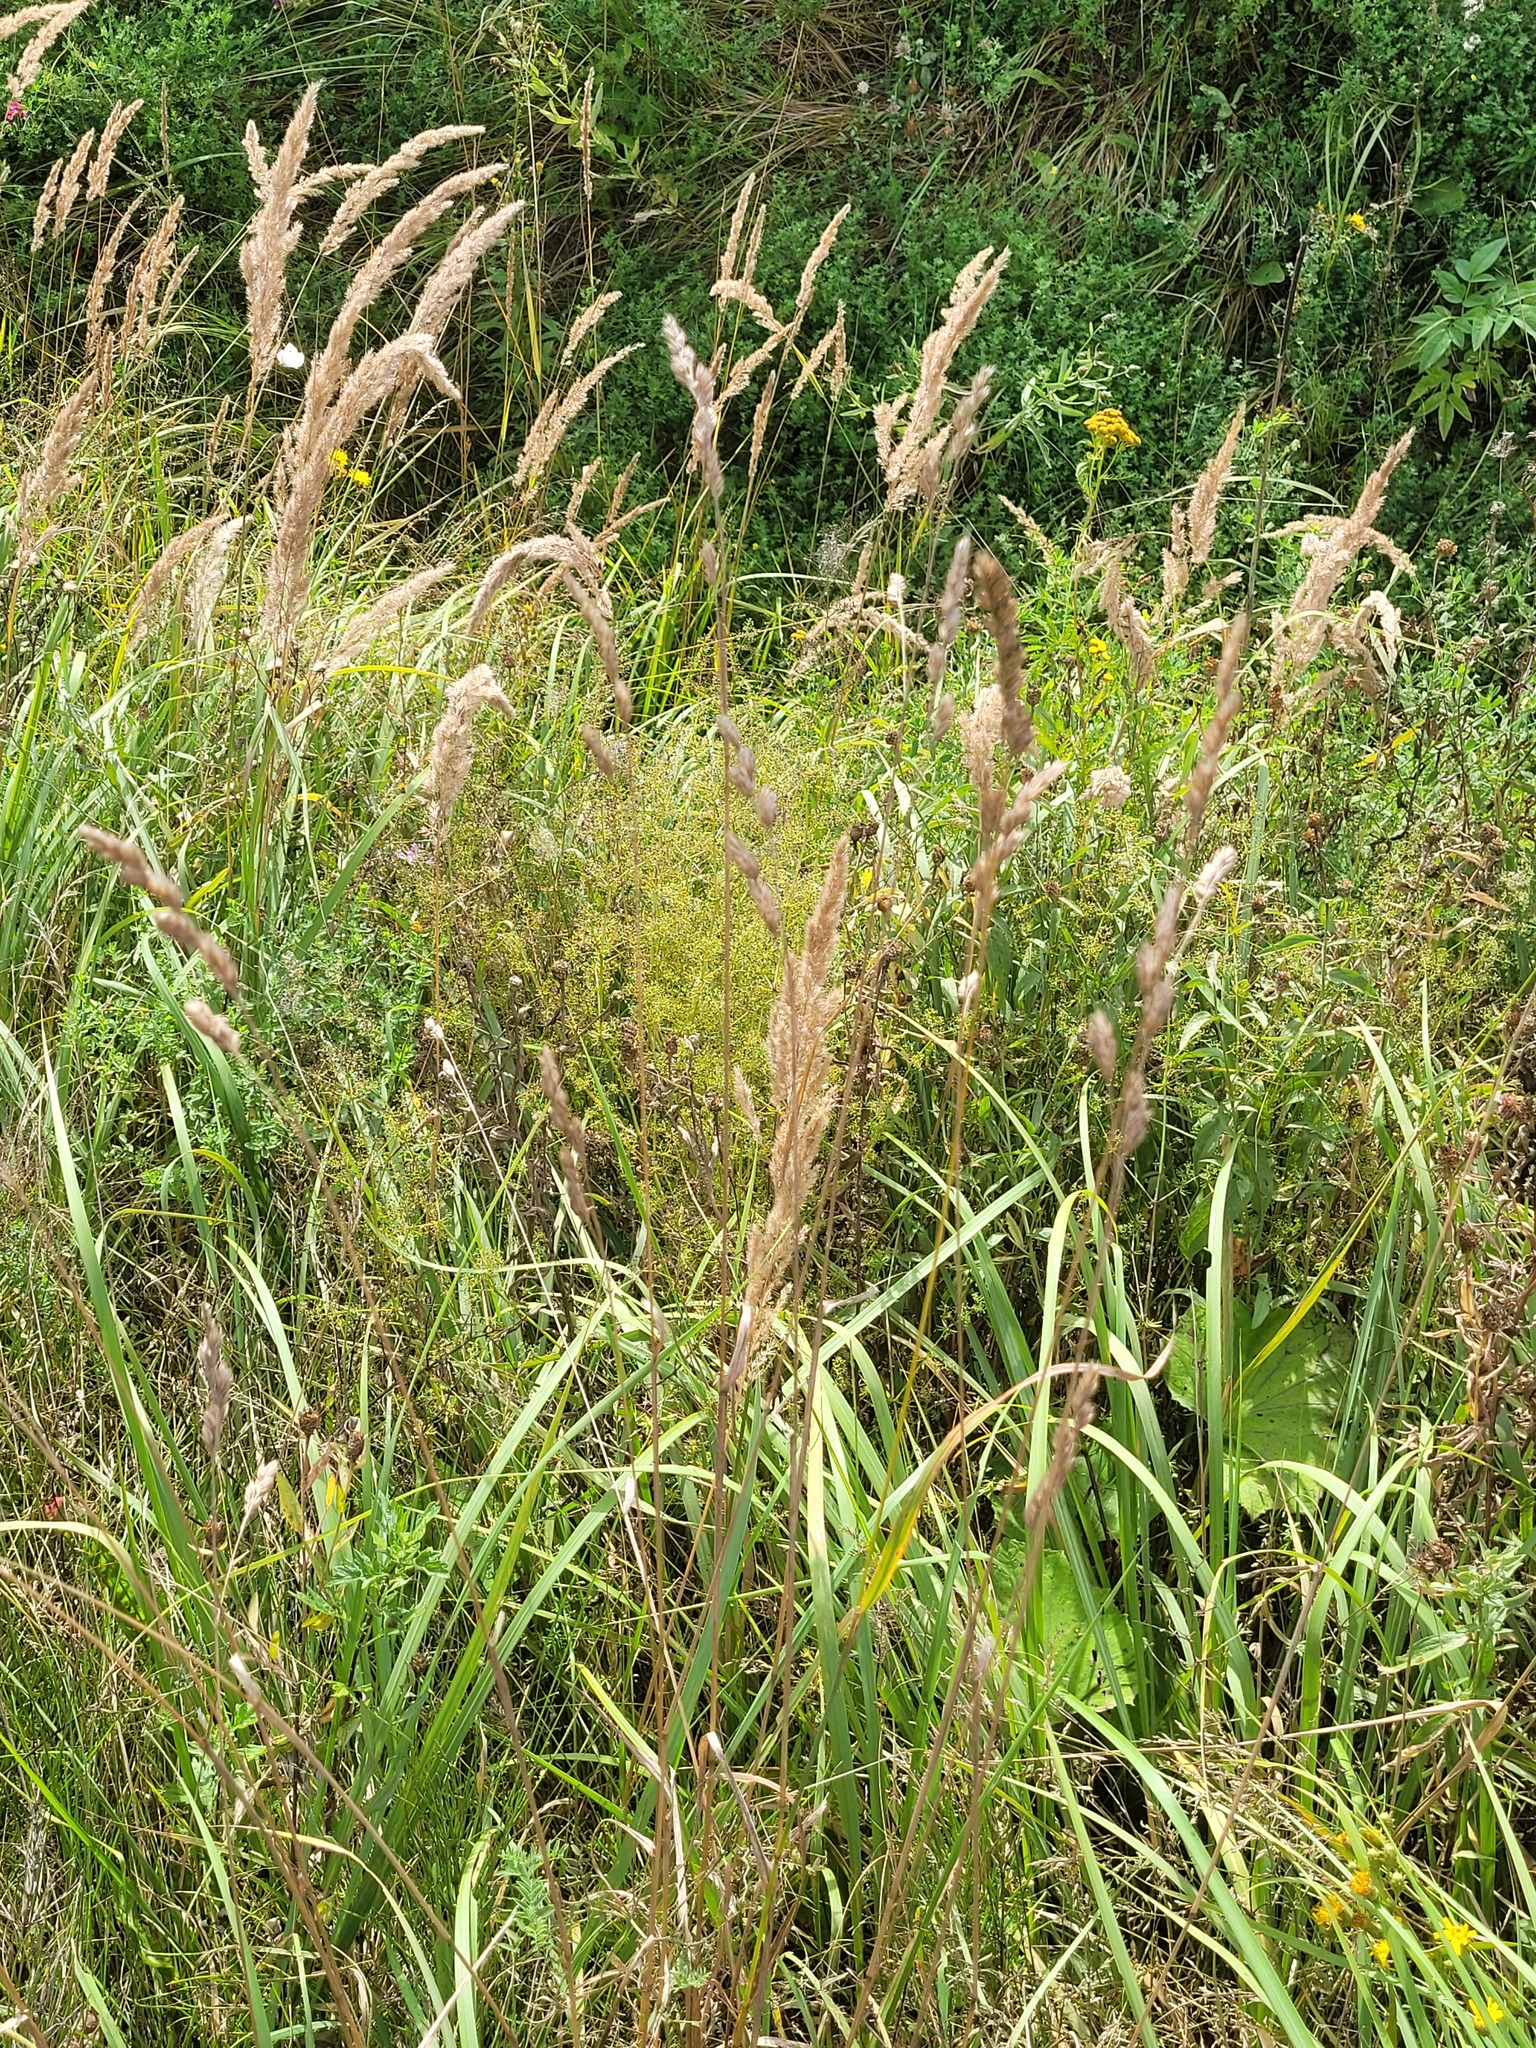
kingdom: Plantae
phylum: Tracheophyta
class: Liliopsida
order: Poales
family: Poaceae
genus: Dactylis
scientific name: Dactylis glomerata
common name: Orchardgrass
